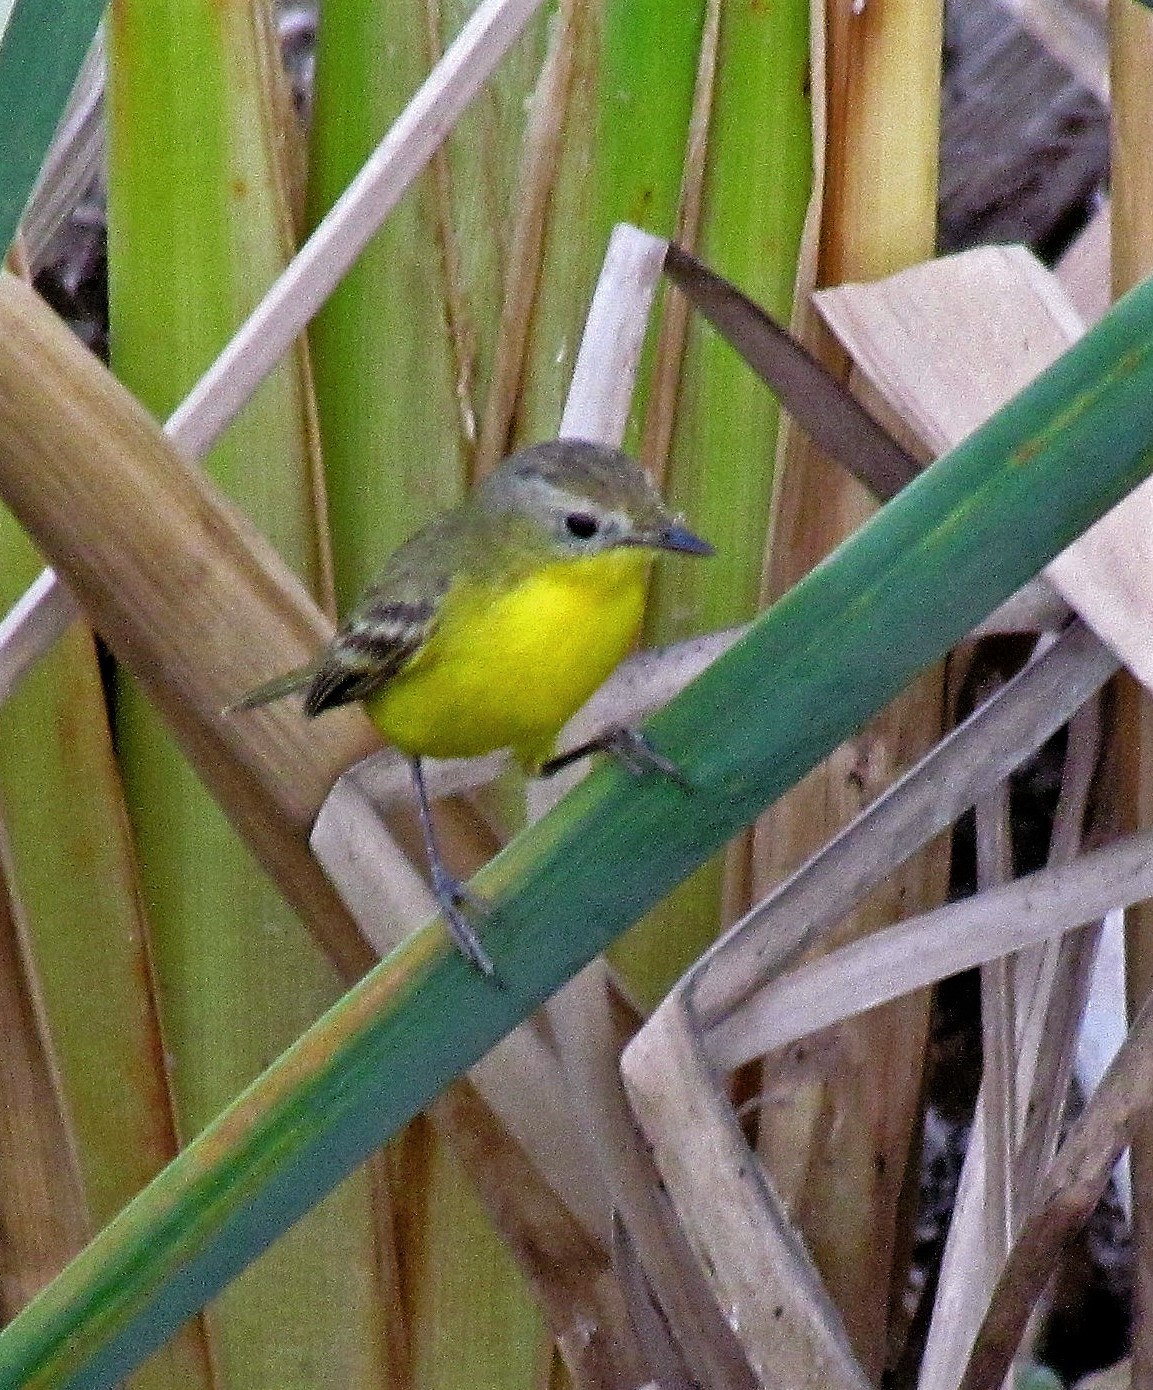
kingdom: Animalia
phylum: Chordata
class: Aves
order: Passeriformes
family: Tyrannidae
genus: Pseudocolopteryx
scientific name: Pseudocolopteryx dinelliana
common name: Dinelli's doradito
